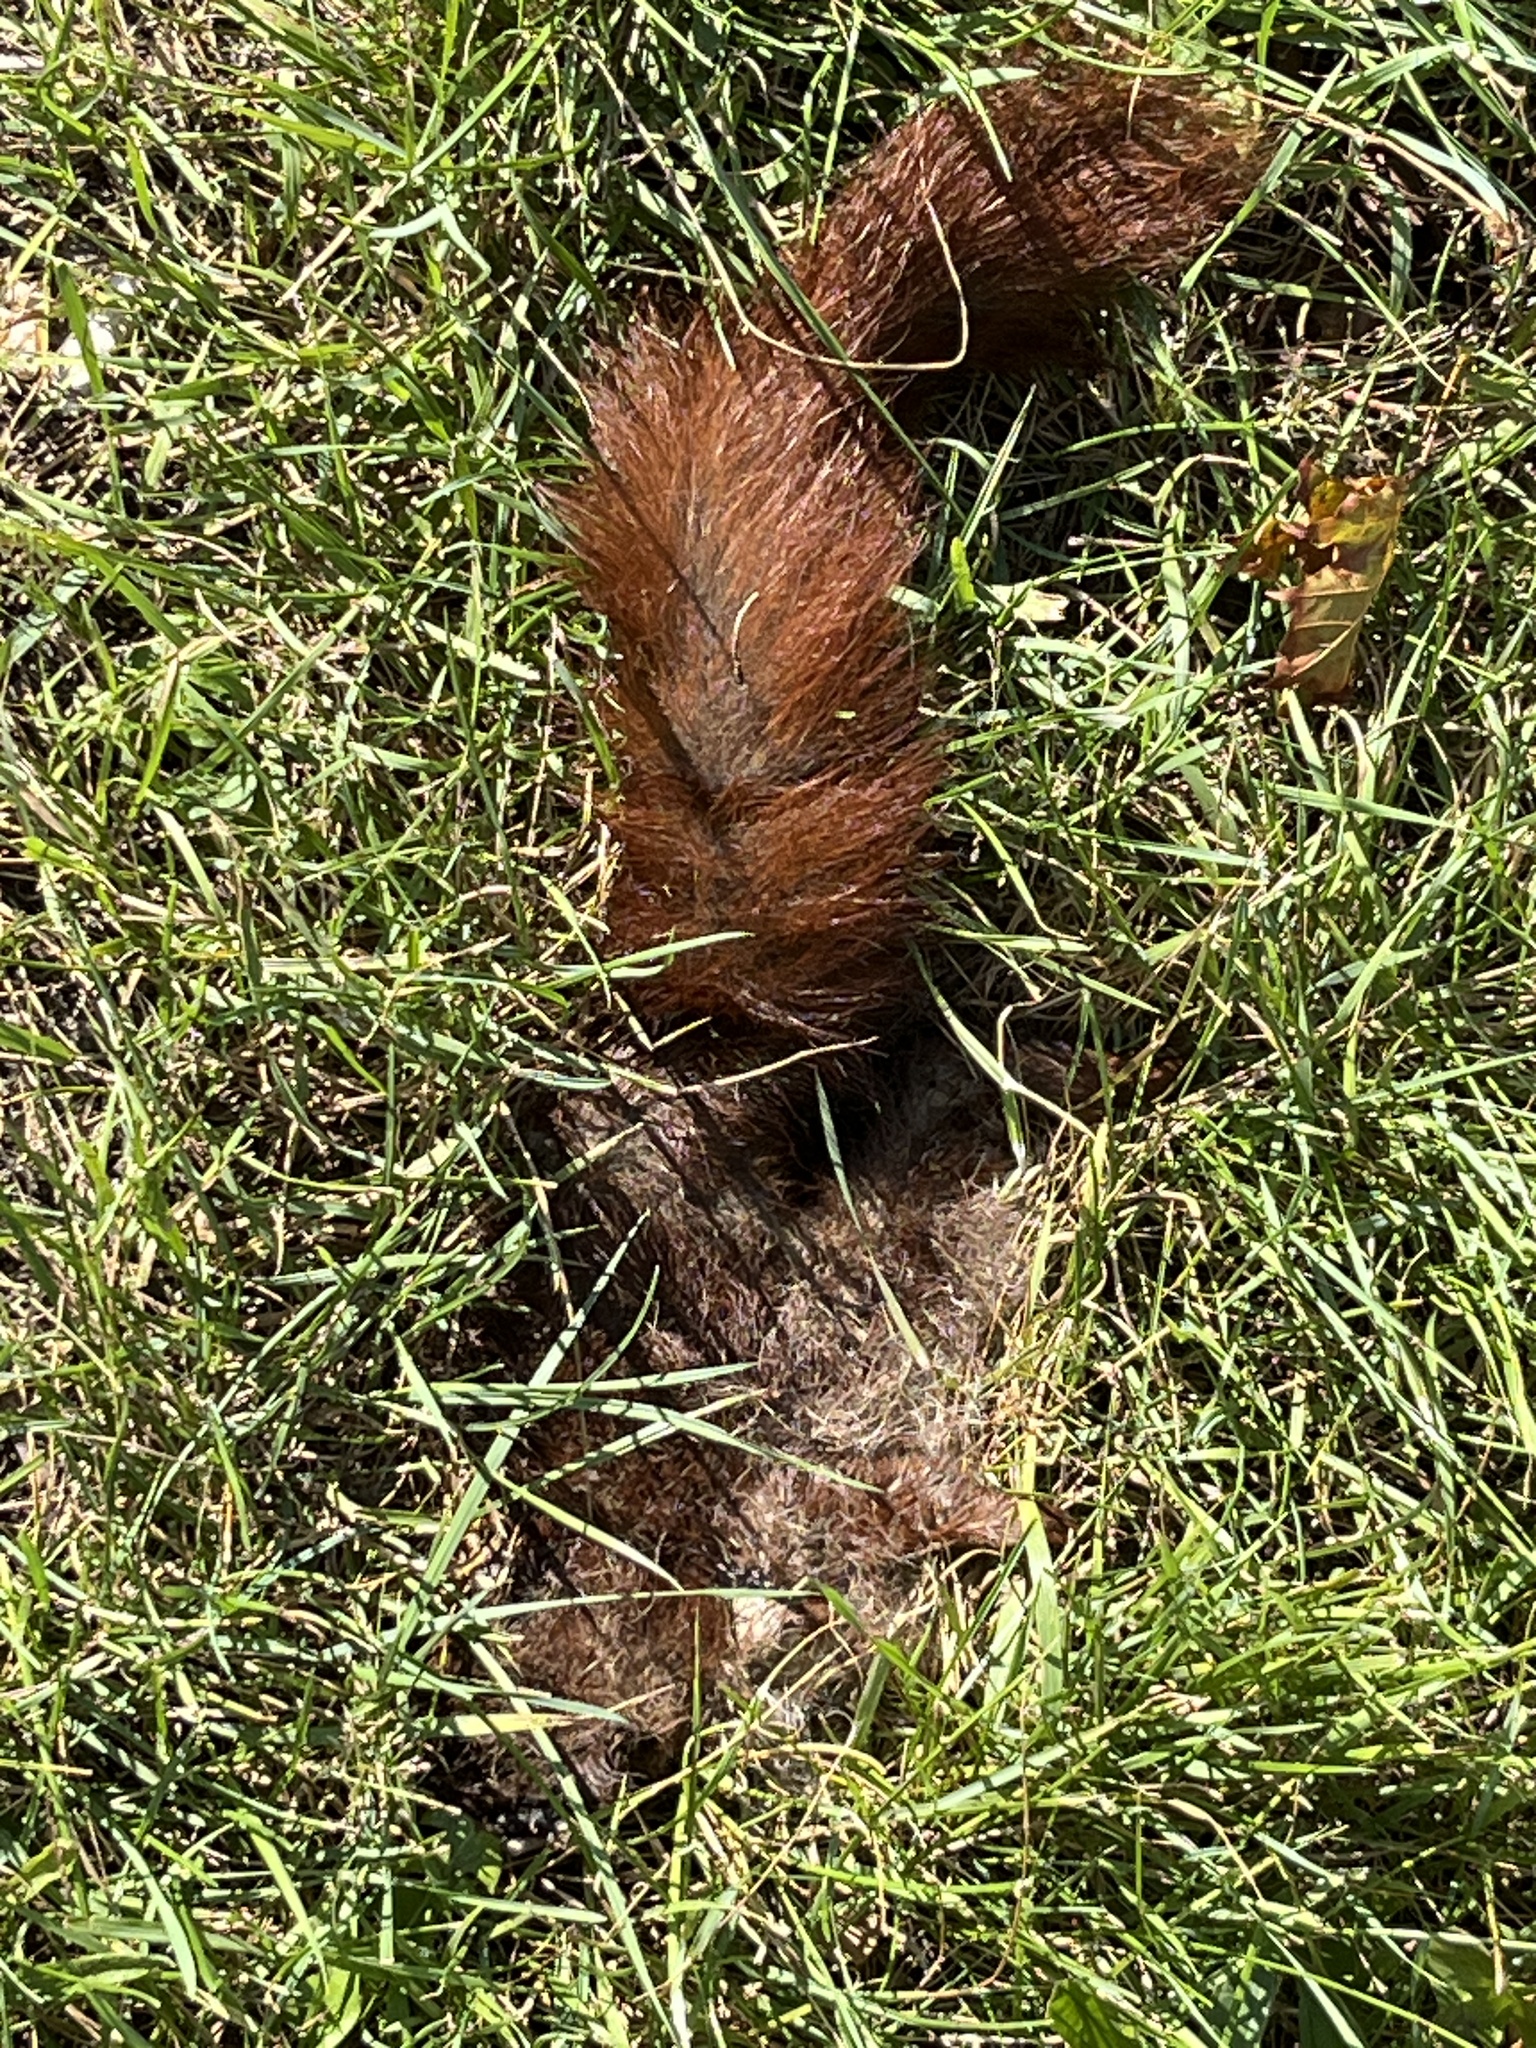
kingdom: Animalia
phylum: Chordata
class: Mammalia
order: Rodentia
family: Sciuridae
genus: Sciurus
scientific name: Sciurus vulgaris
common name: Eurasian red squirrel
